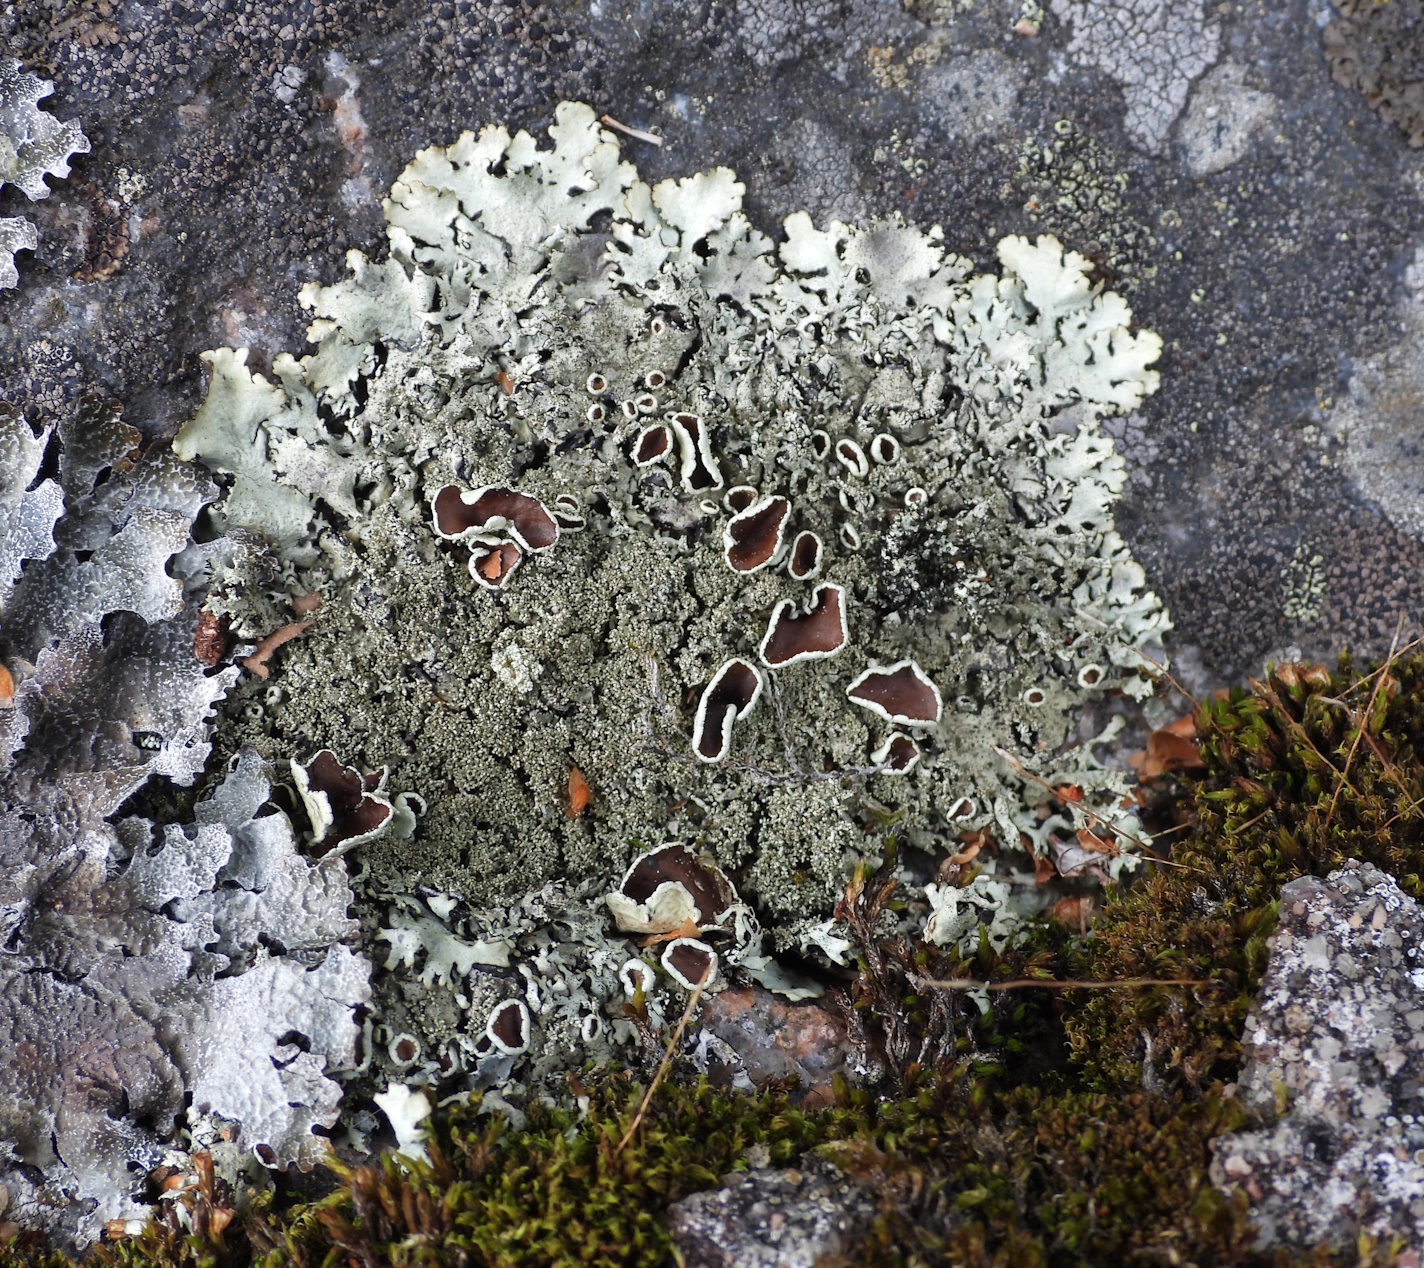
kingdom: Fungi
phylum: Ascomycota
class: Lecanoromycetes
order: Lecanorales
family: Parmeliaceae
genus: Xanthoparmelia
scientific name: Xanthoparmelia conspersa
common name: Peppered rock shield
